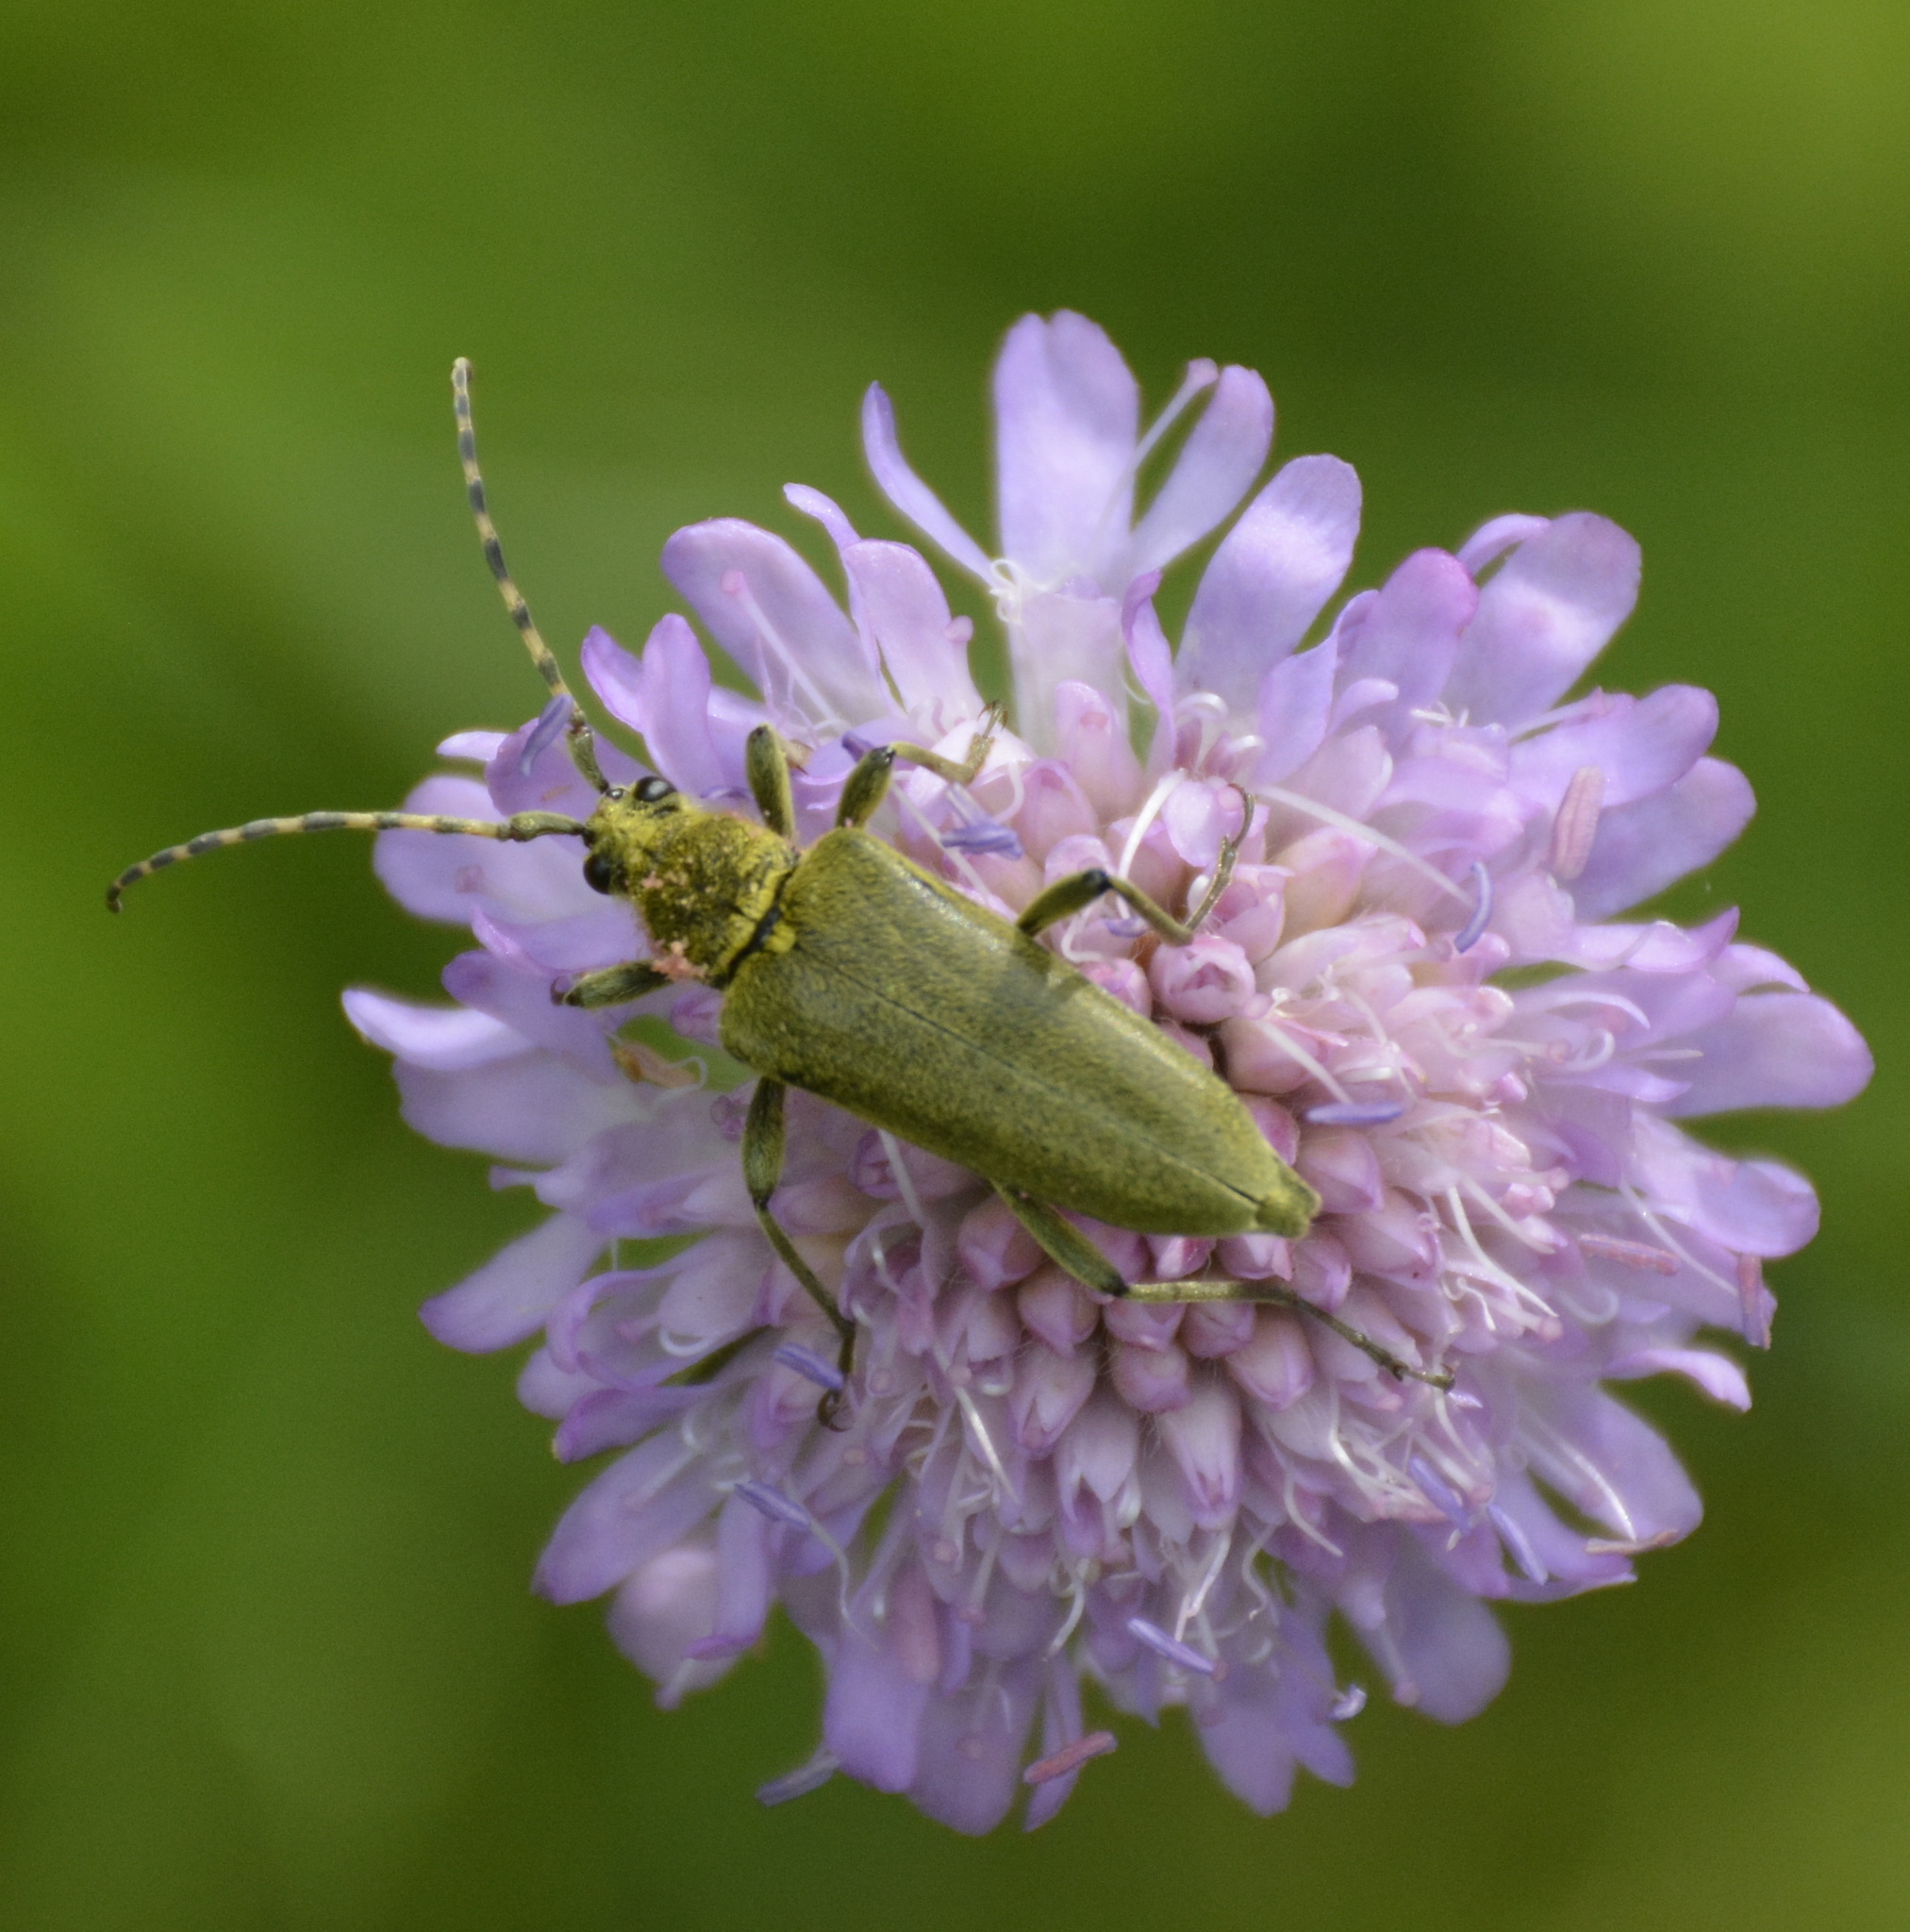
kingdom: Animalia
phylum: Arthropoda
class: Insecta
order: Coleoptera
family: Cerambycidae
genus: Lepturobosca
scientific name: Lepturobosca virens
